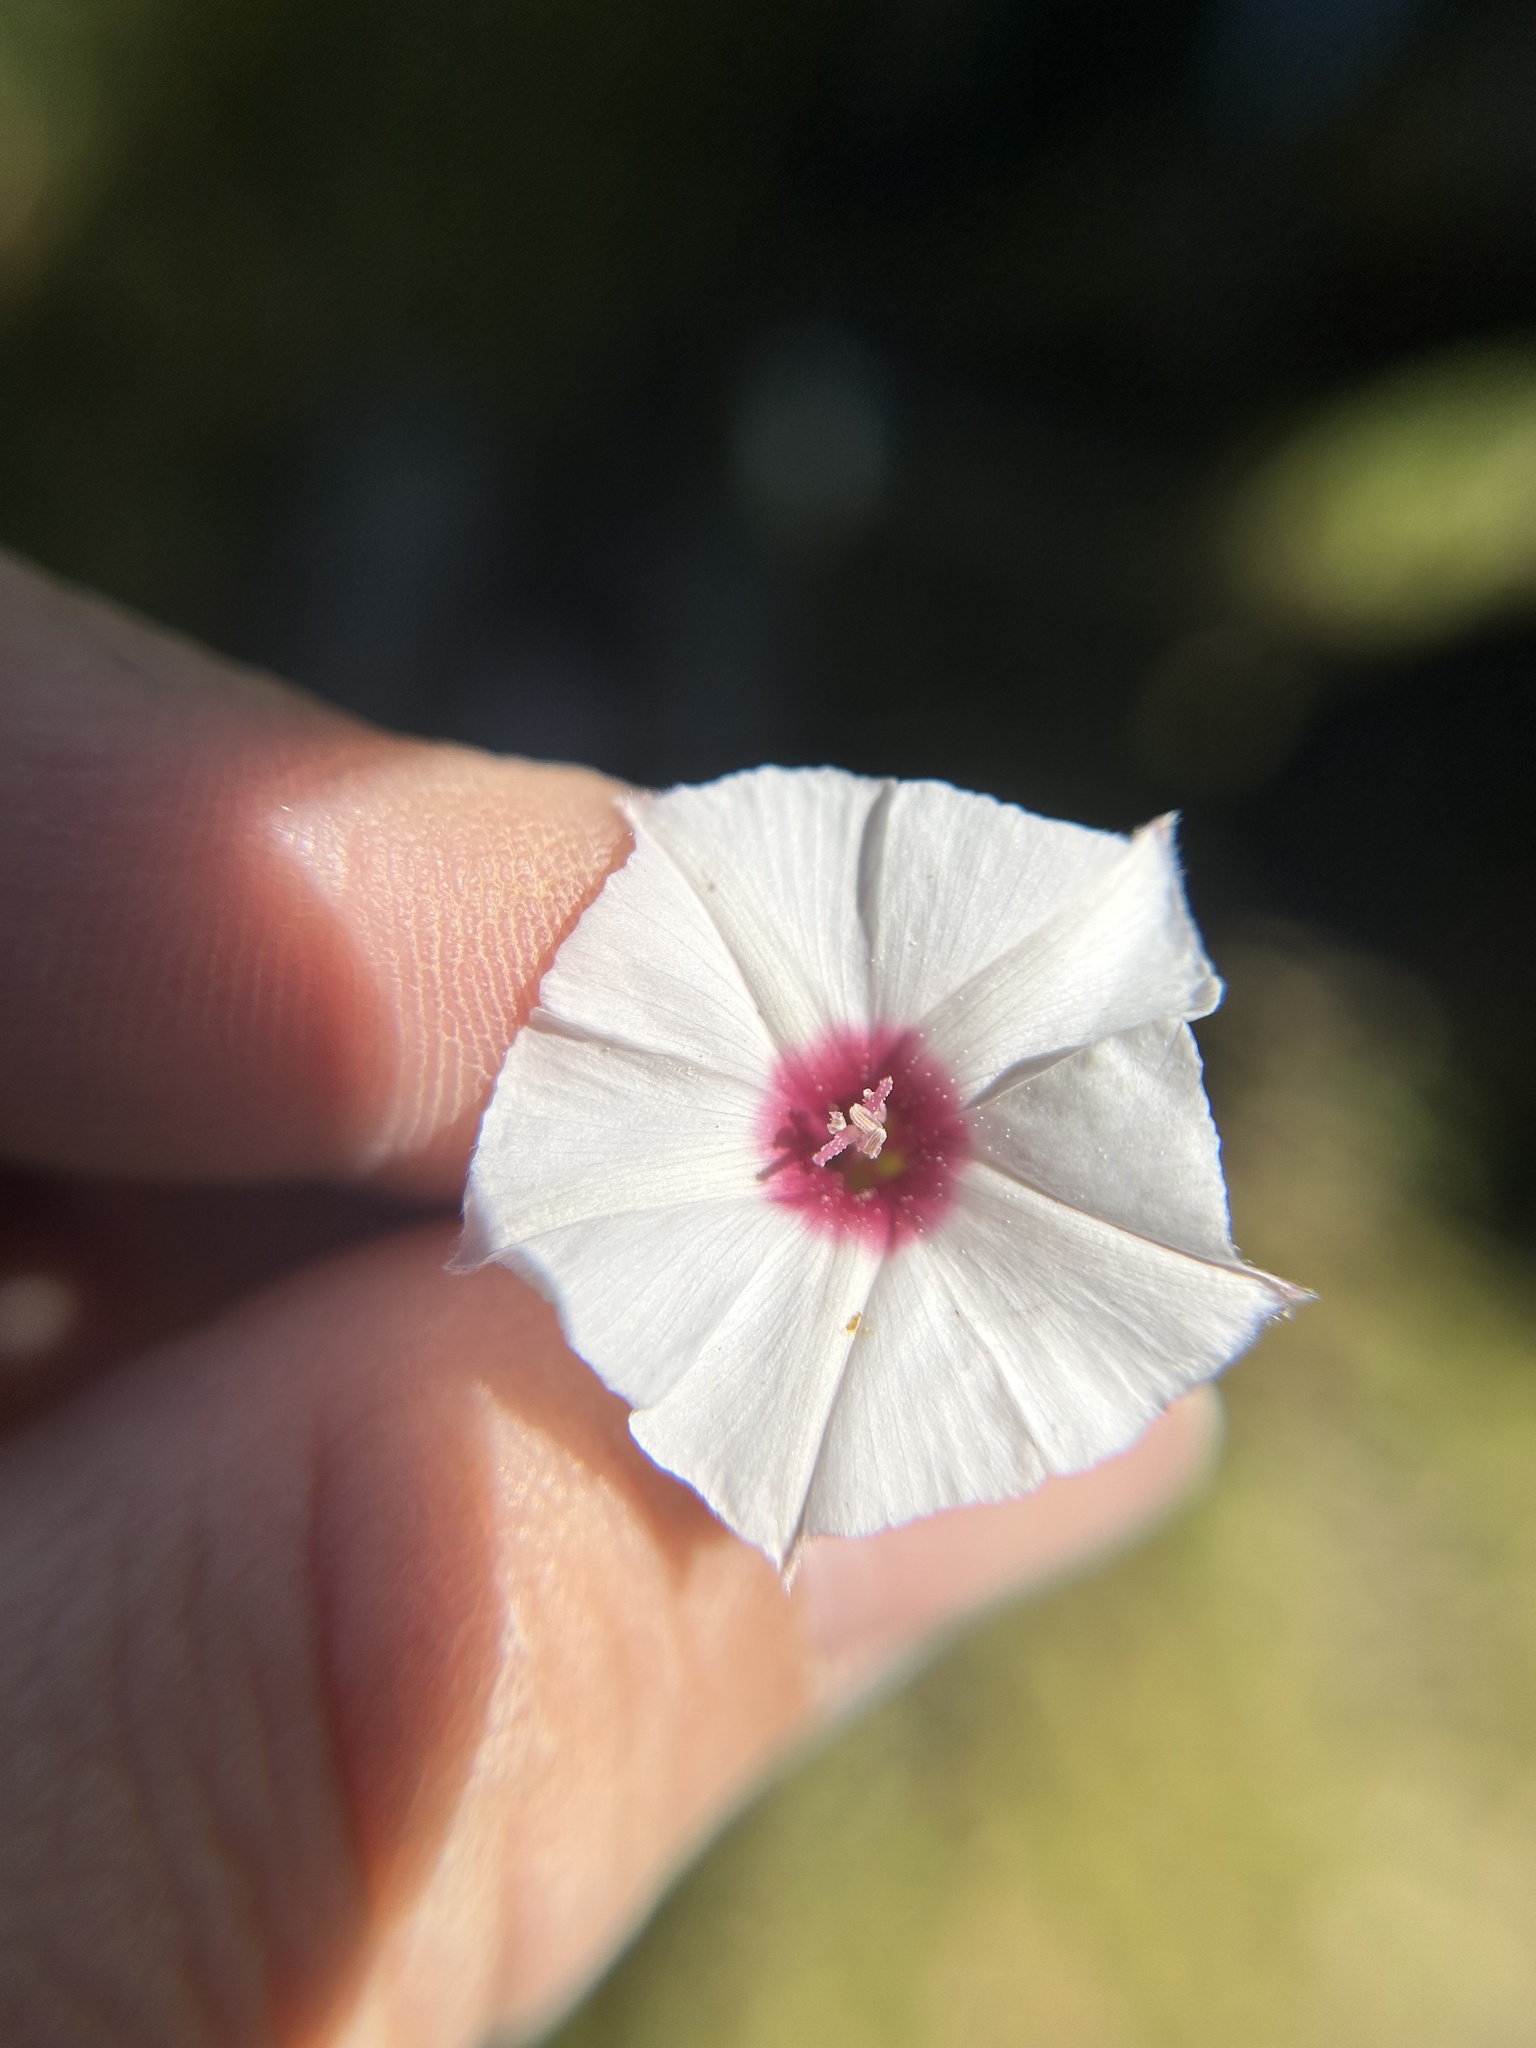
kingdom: Plantae
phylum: Tracheophyta
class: Magnoliopsida
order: Solanales
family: Convolvulaceae
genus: Convolvulus
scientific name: Convolvulus equitans
